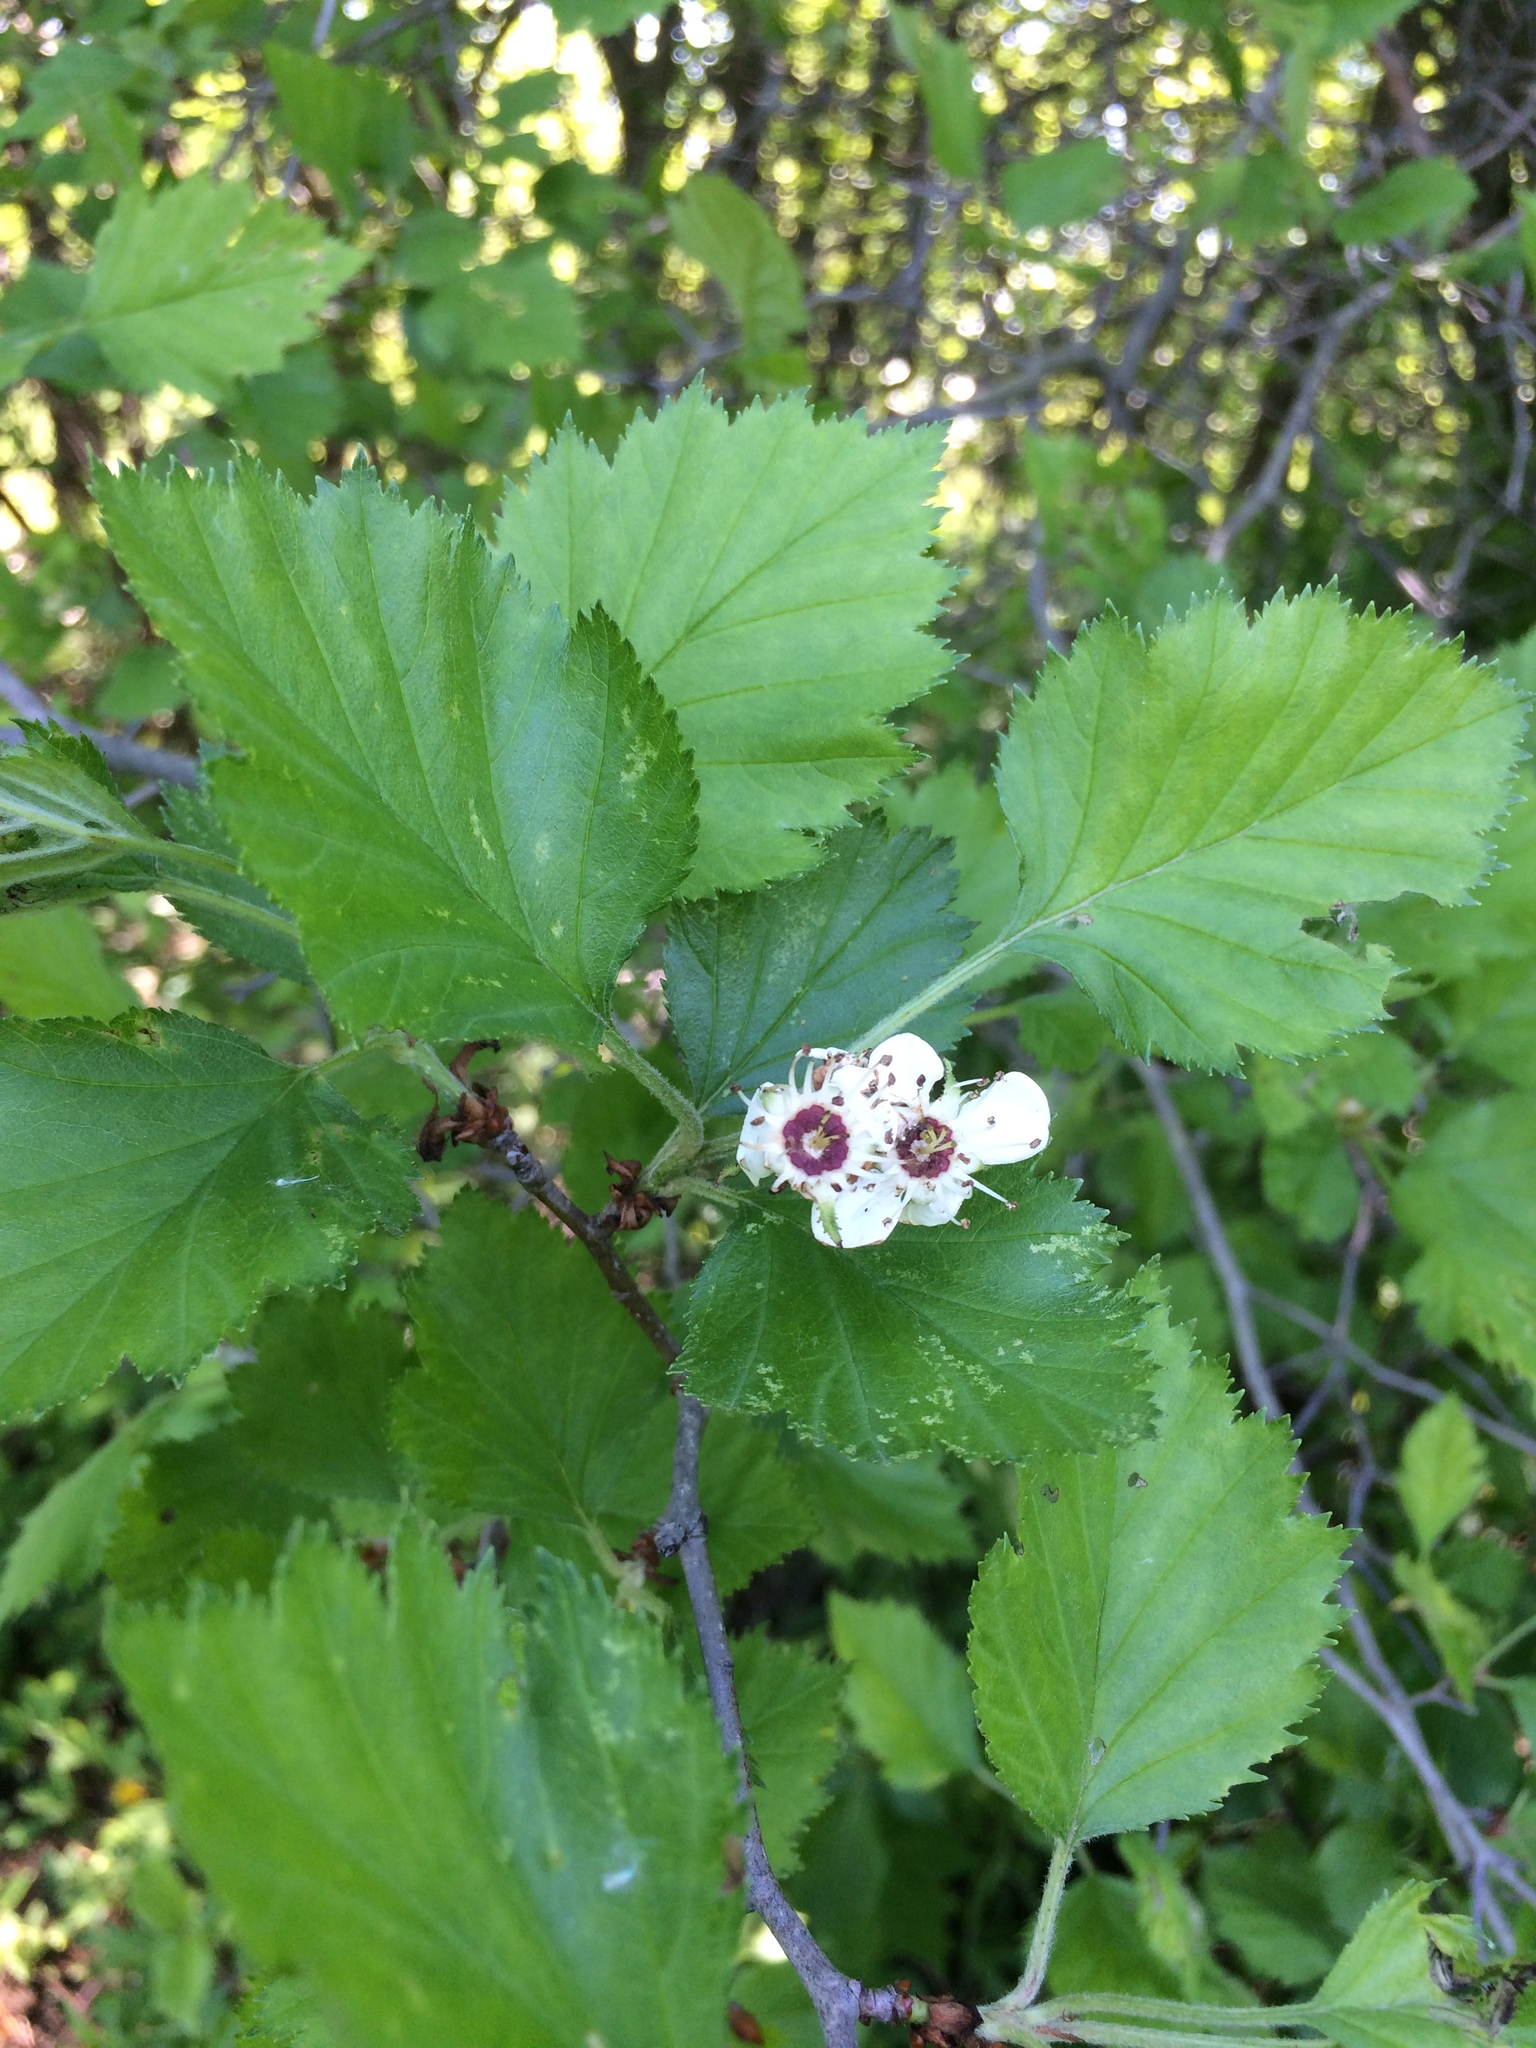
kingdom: Plantae
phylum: Tracheophyta
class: Magnoliopsida
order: Rosales
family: Rosaceae
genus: Crataegus
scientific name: Crataegus submollis
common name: Hairy cockspurthorn
